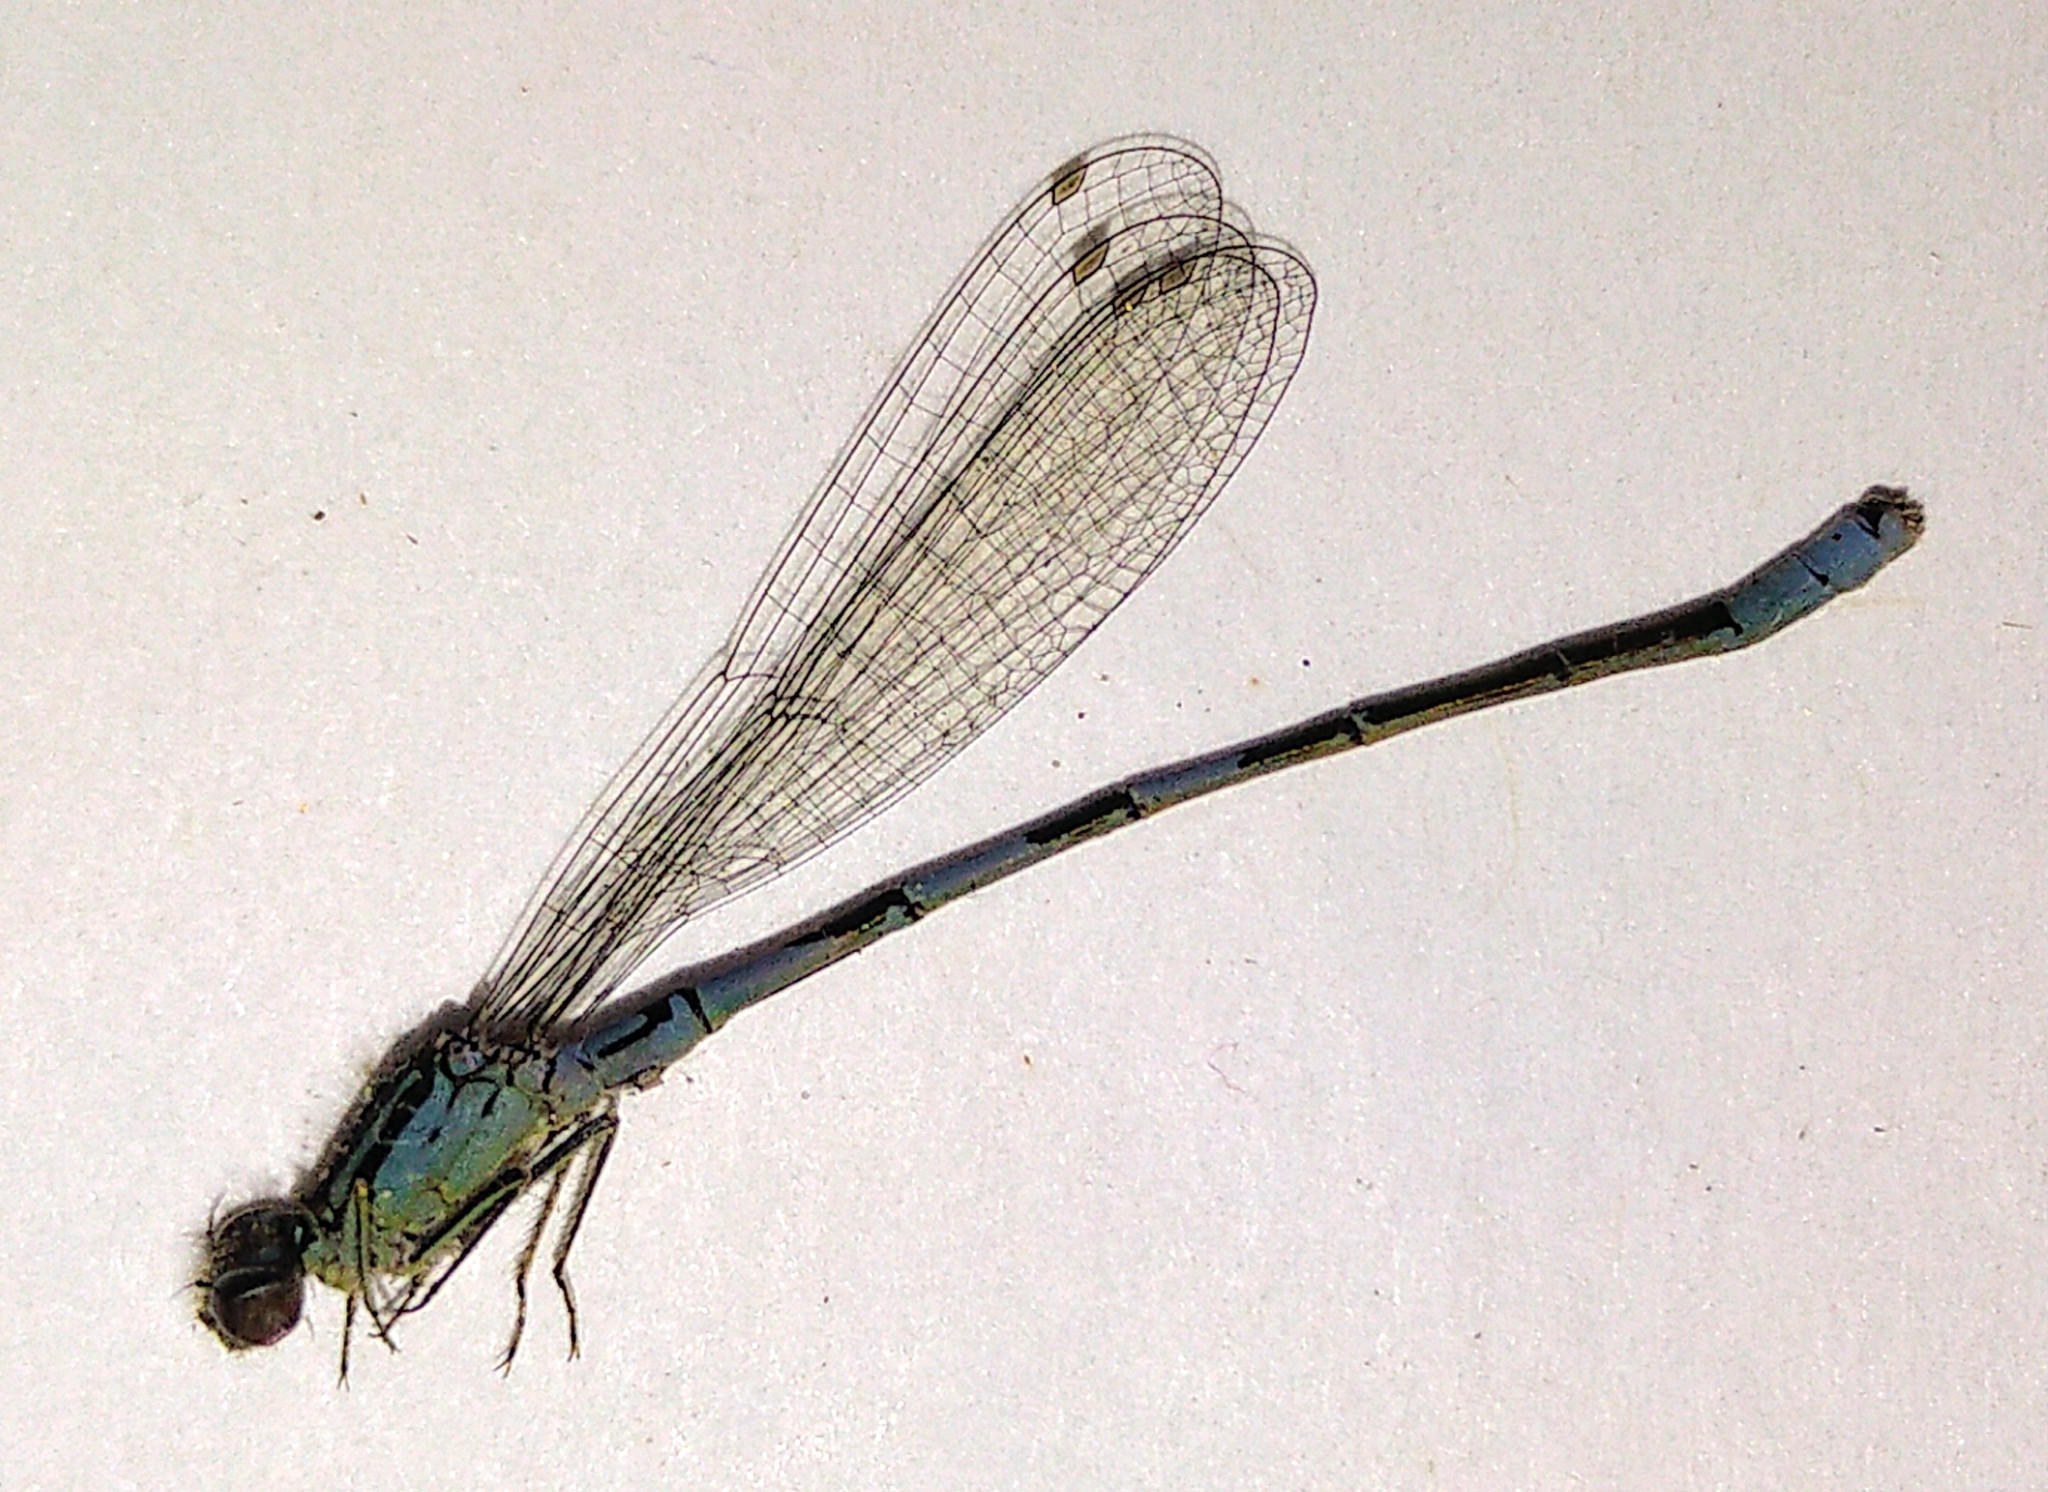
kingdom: Animalia
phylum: Arthropoda
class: Insecta
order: Odonata
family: Coenagrionidae
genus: Coenagrion
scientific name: Coenagrion resolutum
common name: Taiga bluet
